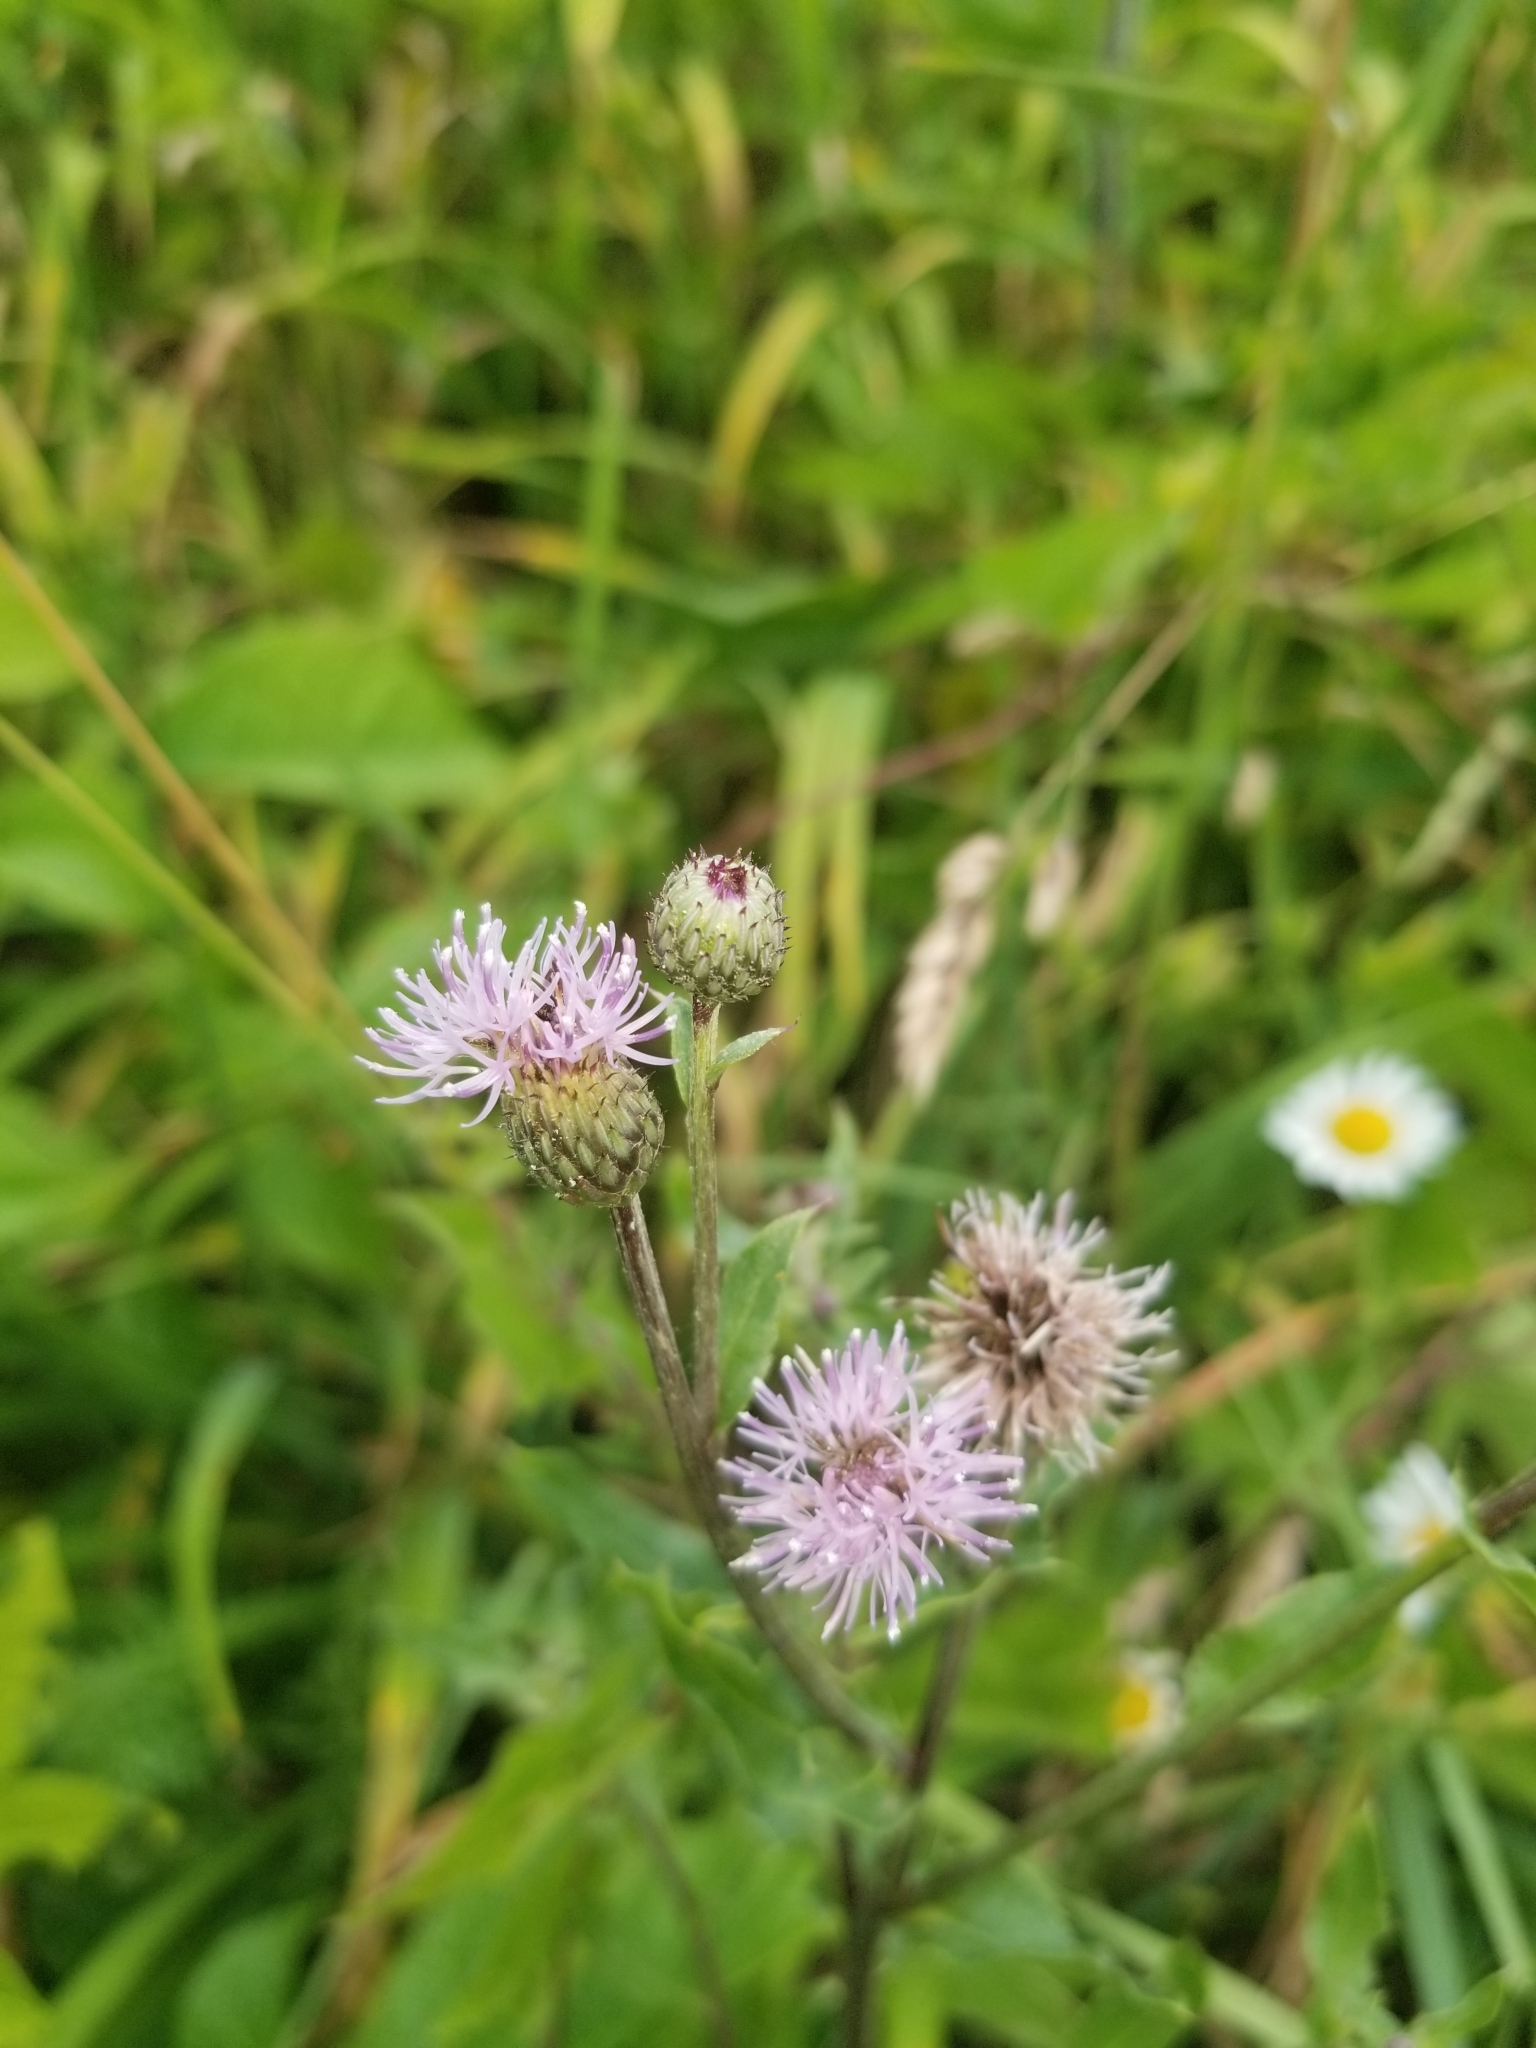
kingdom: Plantae
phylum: Tracheophyta
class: Magnoliopsida
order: Asterales
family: Asteraceae
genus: Cirsium
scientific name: Cirsium arvense
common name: Creeping thistle
